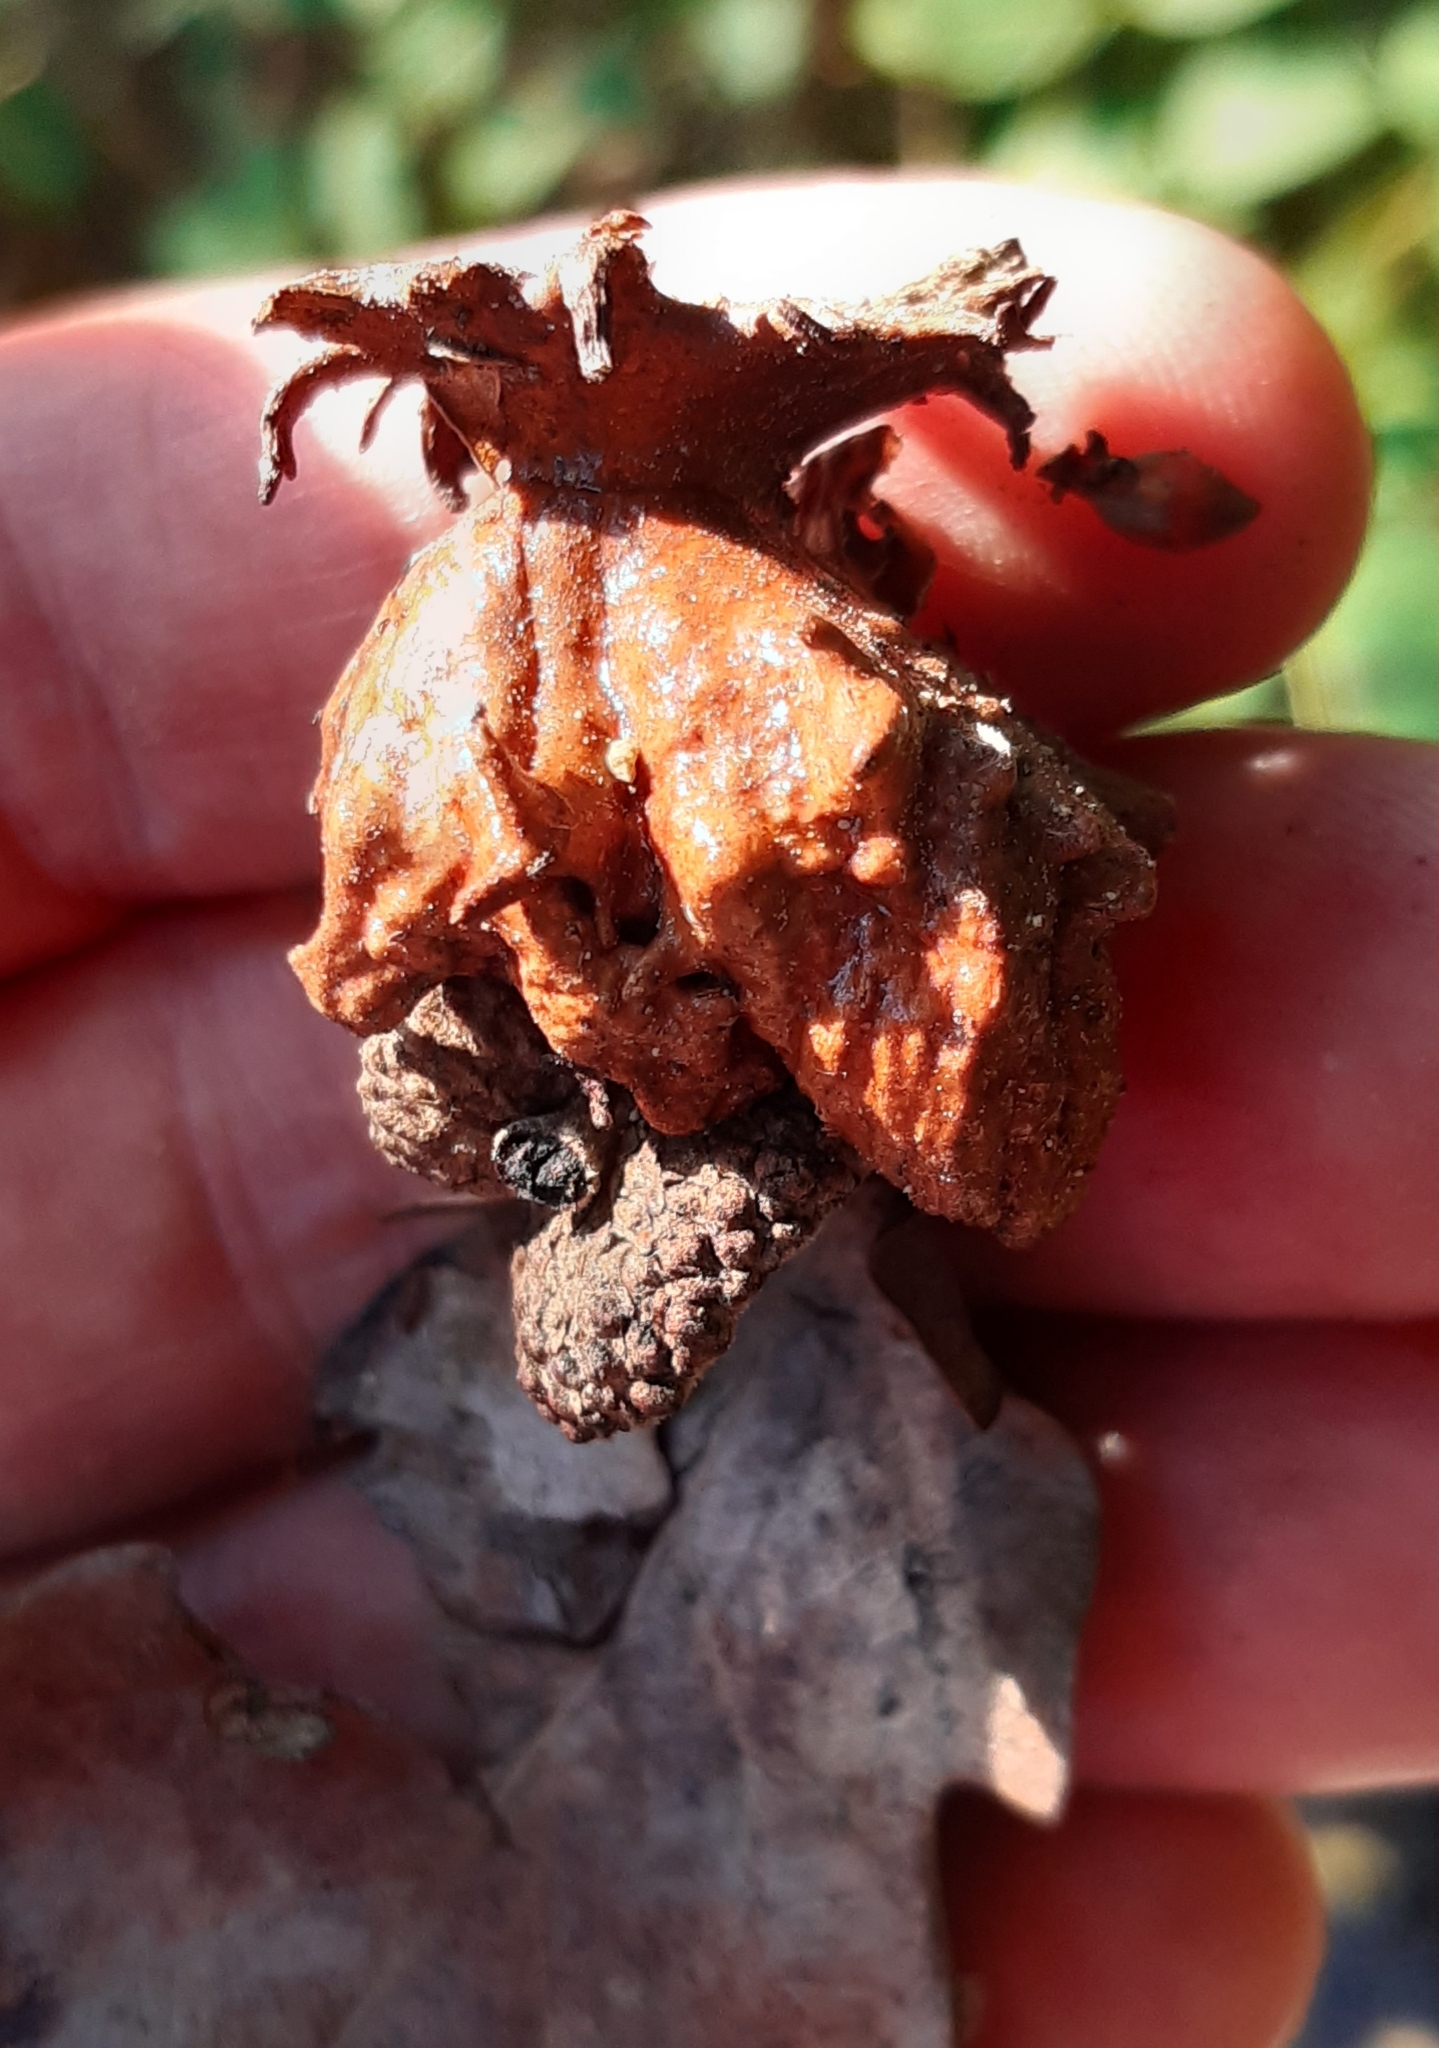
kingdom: Animalia
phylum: Arthropoda
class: Insecta
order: Hymenoptera
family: Cynipidae
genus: Andricus
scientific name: Andricus dentimitratus
